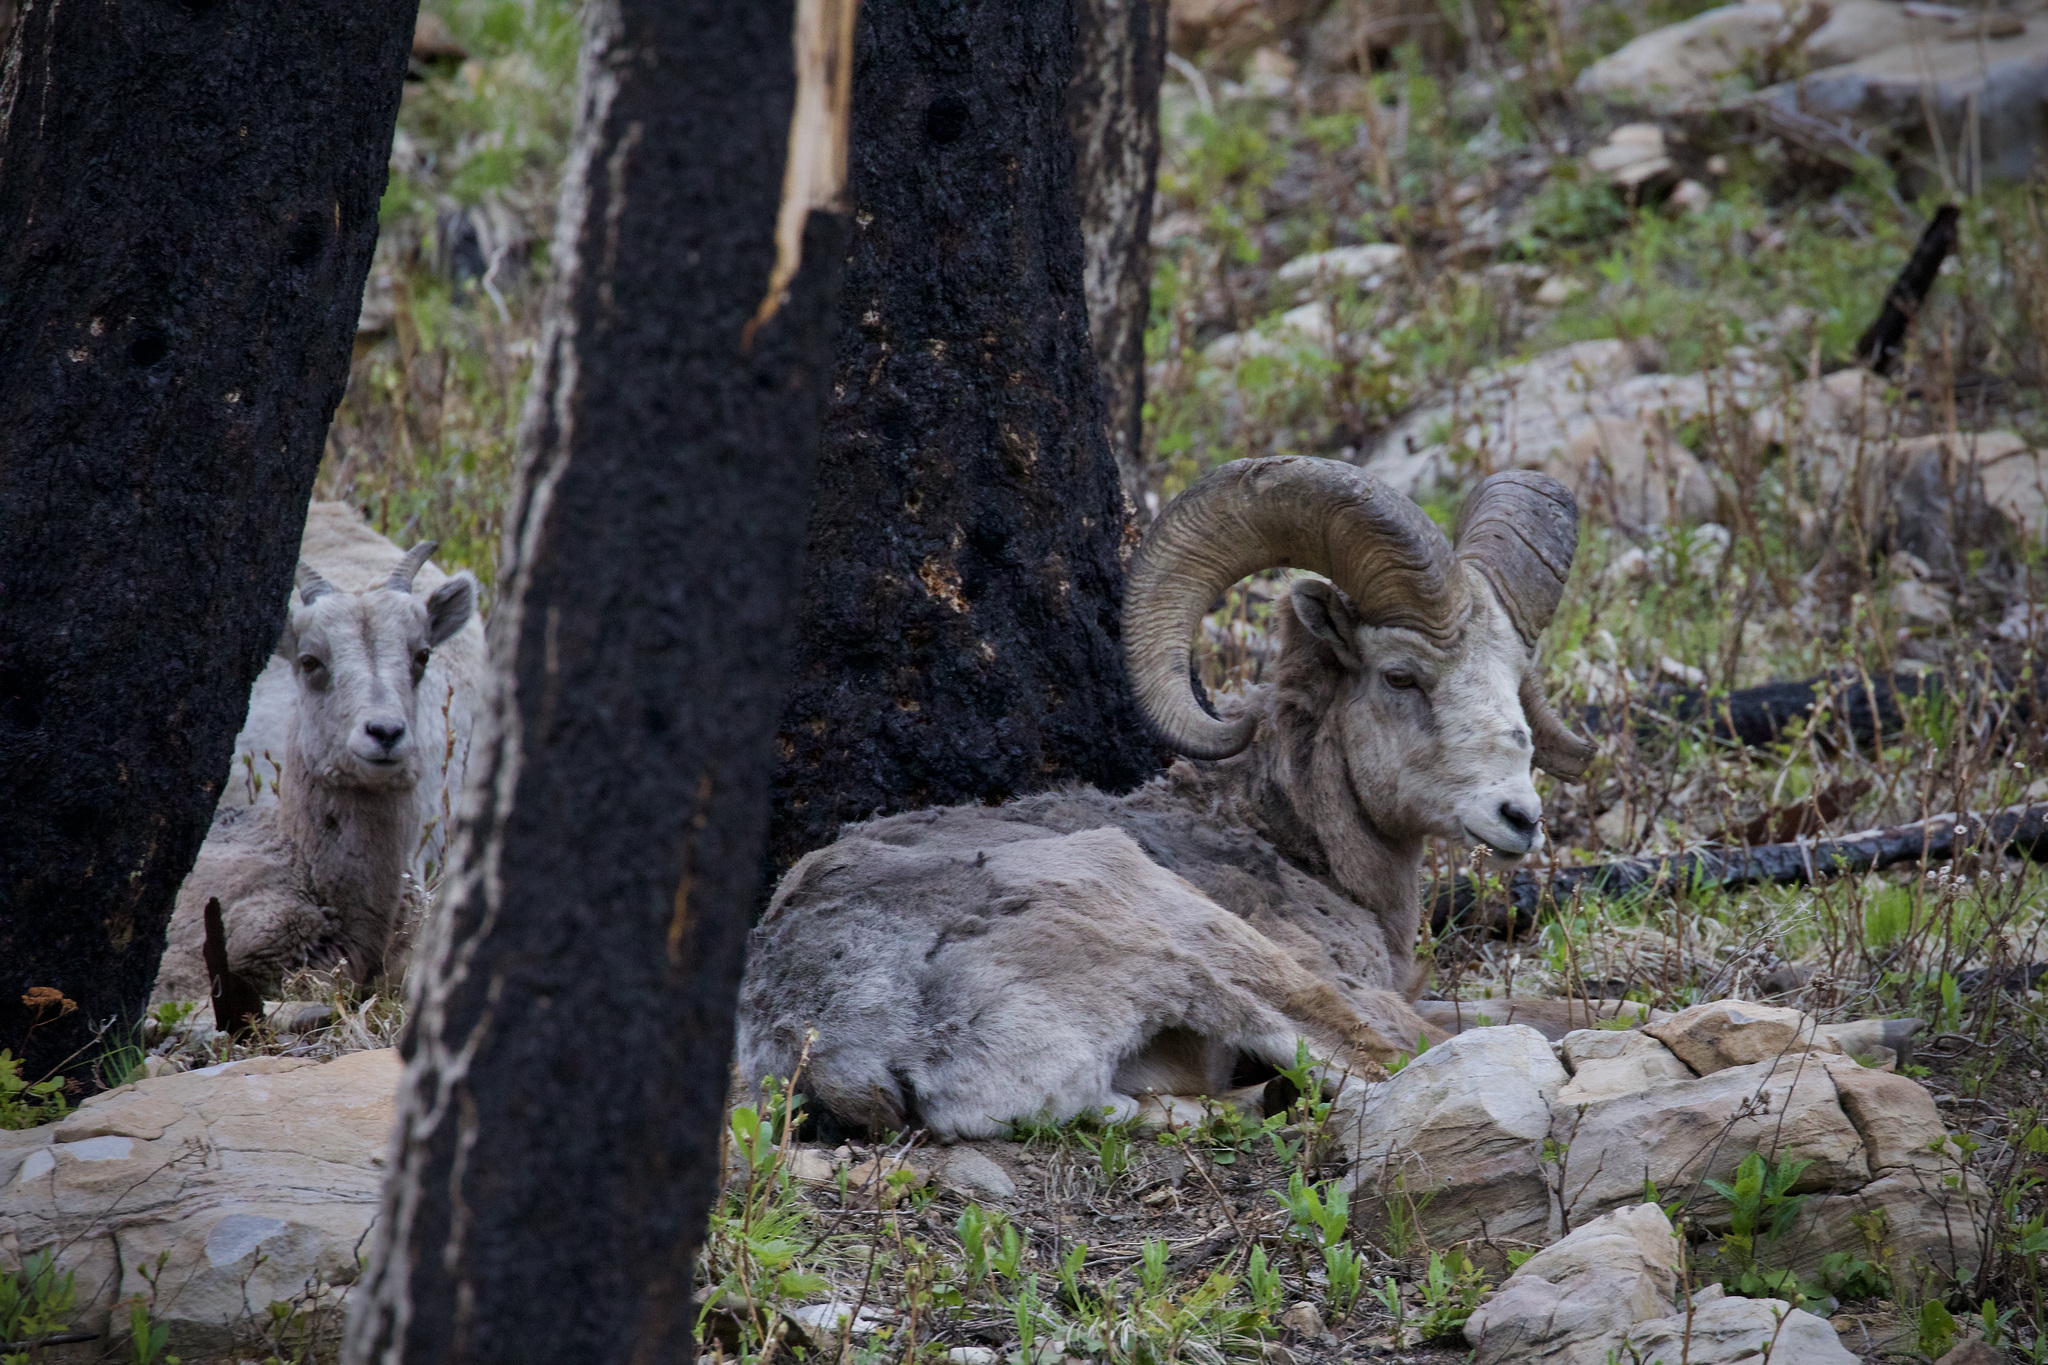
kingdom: Animalia
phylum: Chordata
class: Mammalia
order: Artiodactyla
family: Bovidae
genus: Ovis
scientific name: Ovis canadensis
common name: Bighorn sheep
